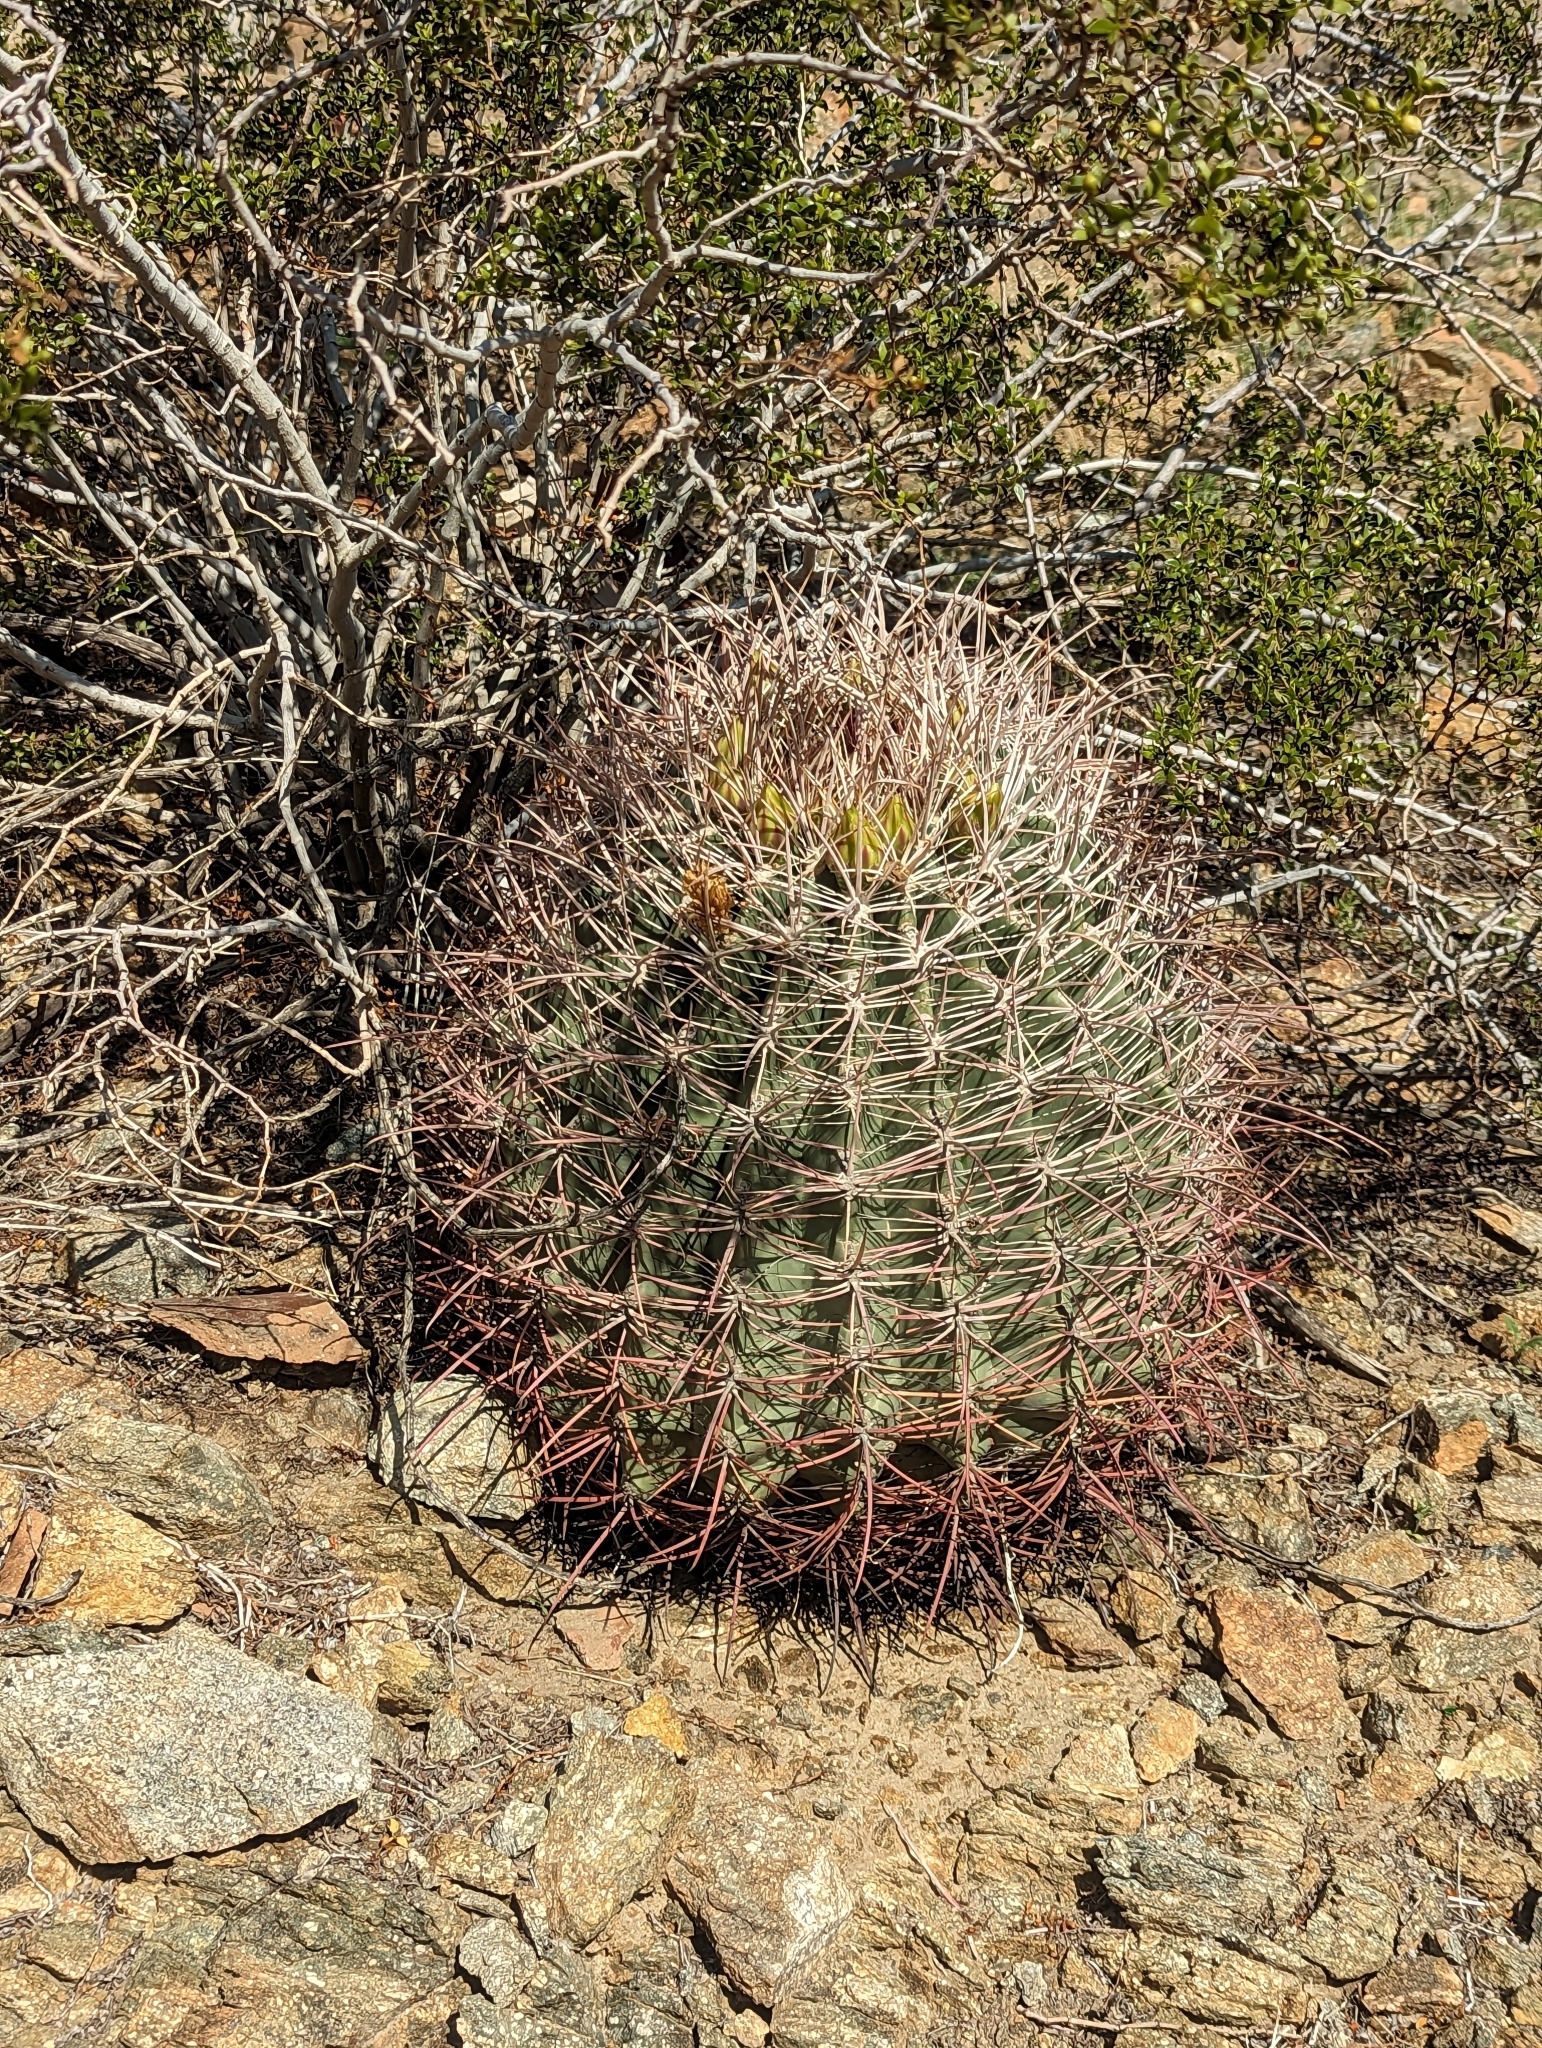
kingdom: Plantae
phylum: Tracheophyta
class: Magnoliopsida
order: Caryophyllales
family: Cactaceae
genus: Ferocactus
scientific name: Ferocactus cylindraceus
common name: California barrel cactus
